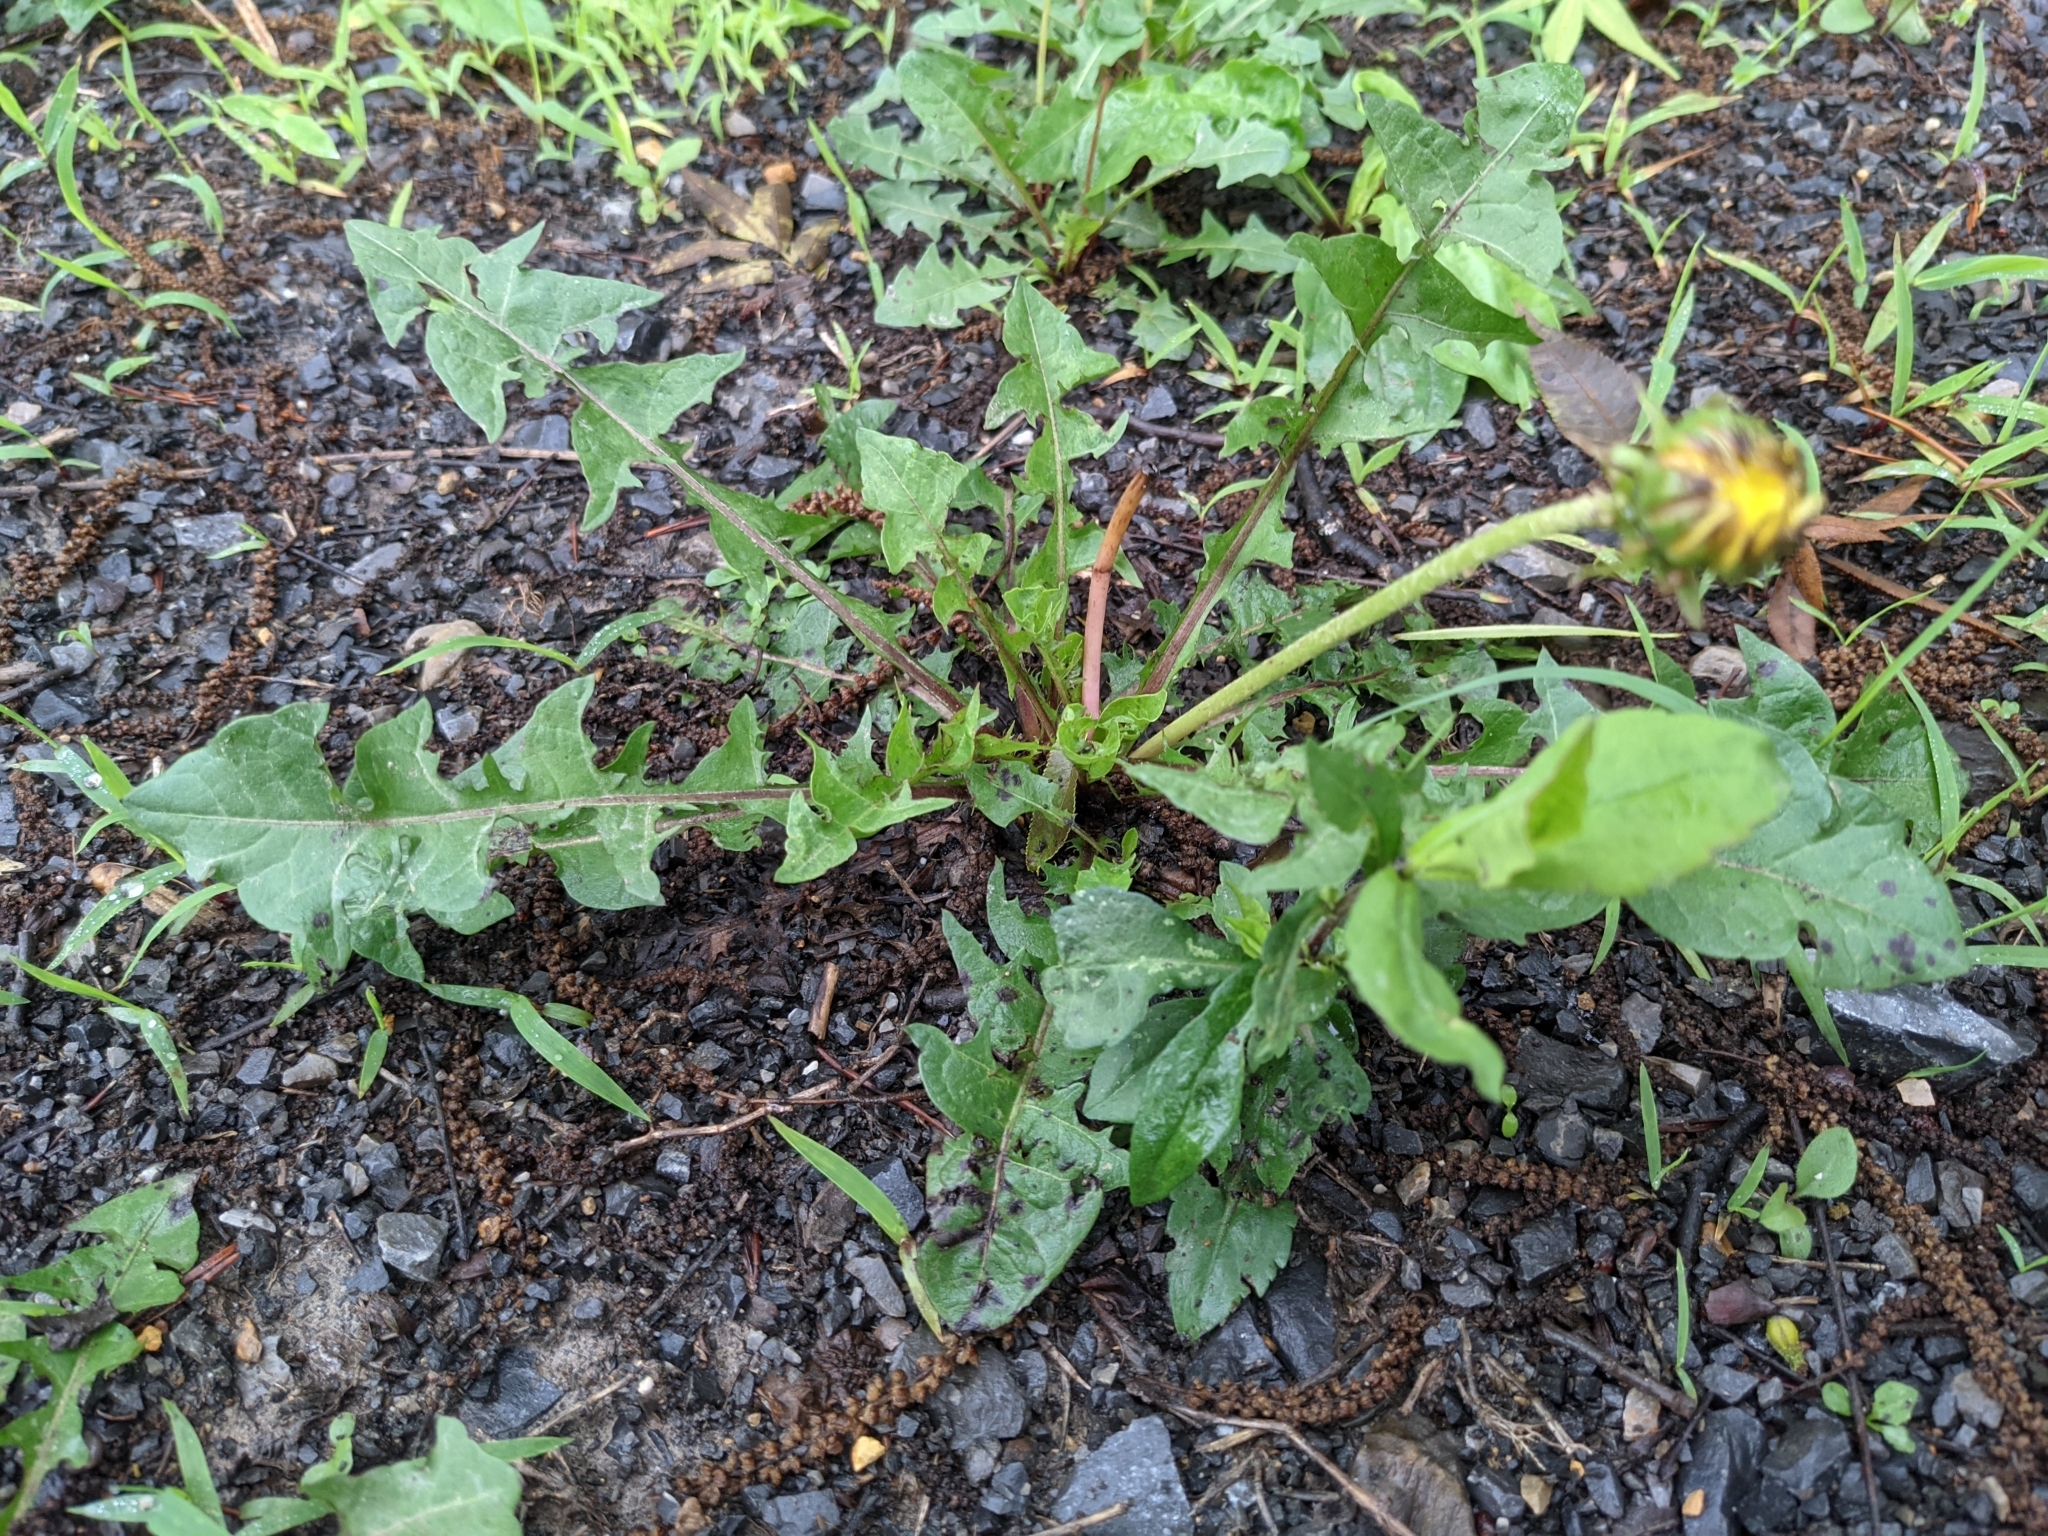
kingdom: Plantae
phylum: Tracheophyta
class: Magnoliopsida
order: Asterales
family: Asteraceae
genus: Taraxacum
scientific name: Taraxacum
